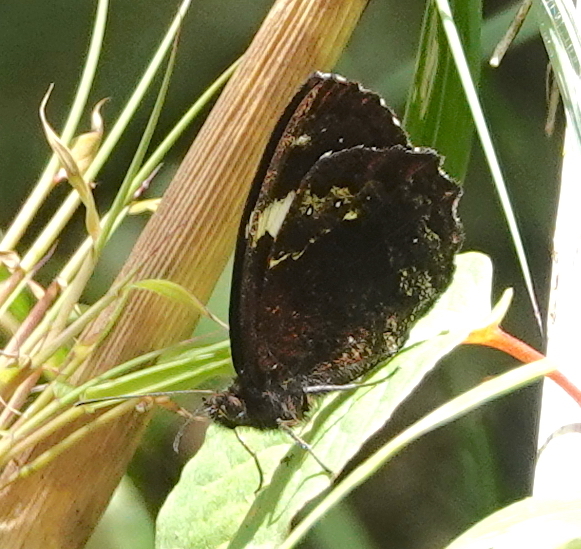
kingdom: Animalia
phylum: Arthropoda
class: Insecta
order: Lepidoptera
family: Nymphalidae
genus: Pedaliodes
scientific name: Pedaliodes peucestas
